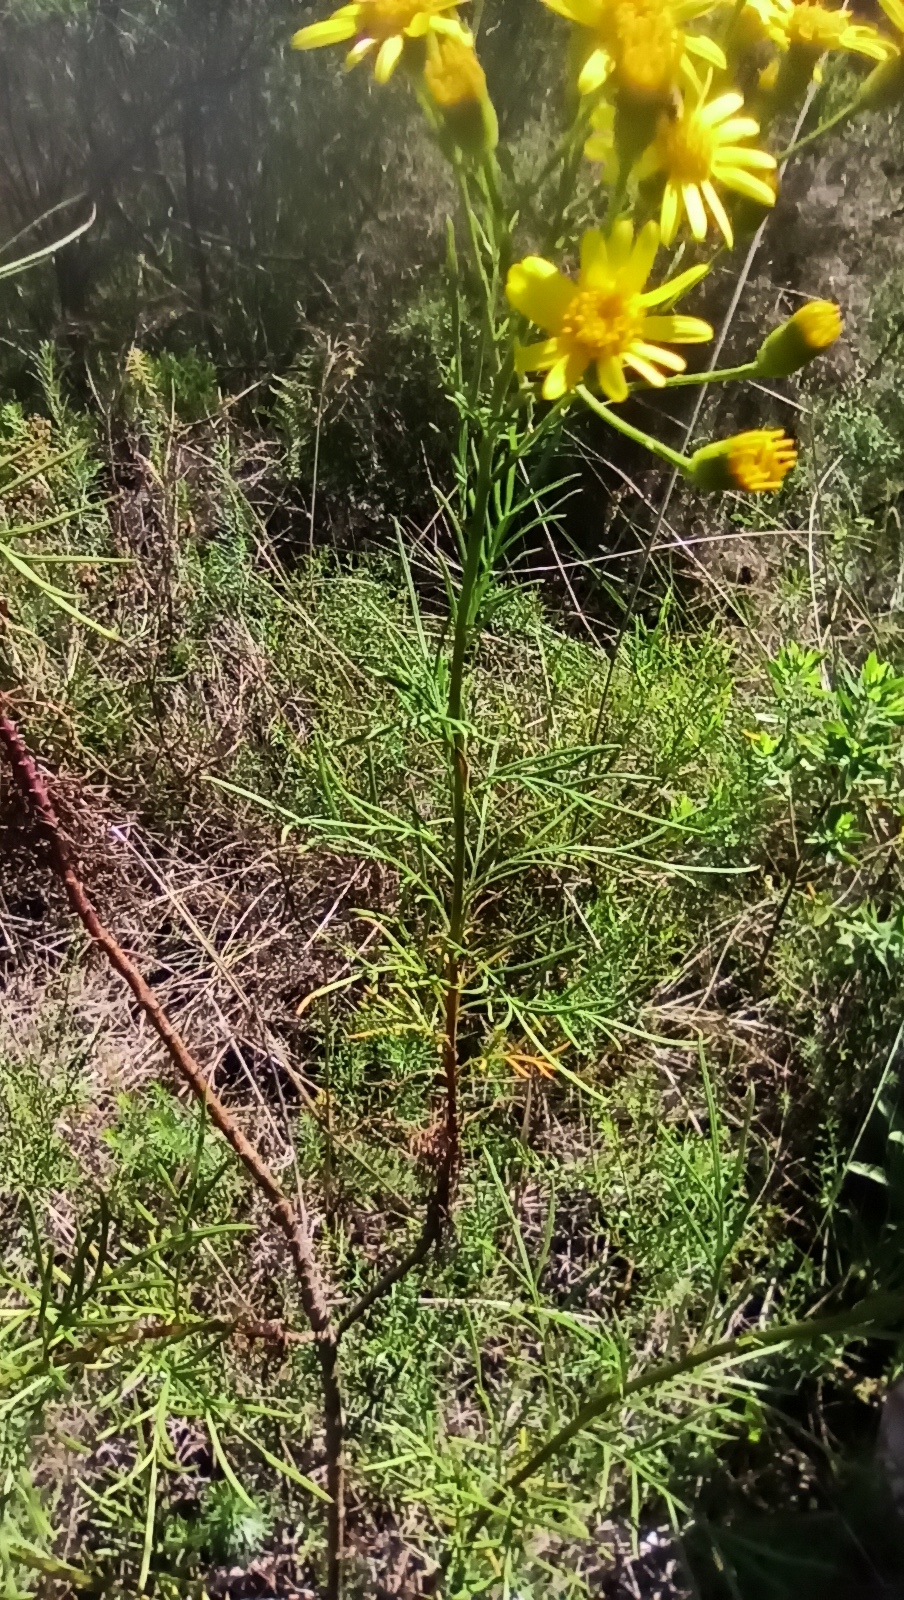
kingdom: Plantae
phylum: Tracheophyta
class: Magnoliopsida
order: Asterales
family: Asteraceae
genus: Senecio
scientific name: Senecio brasiliensis
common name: Hemp-leaf ragwort
